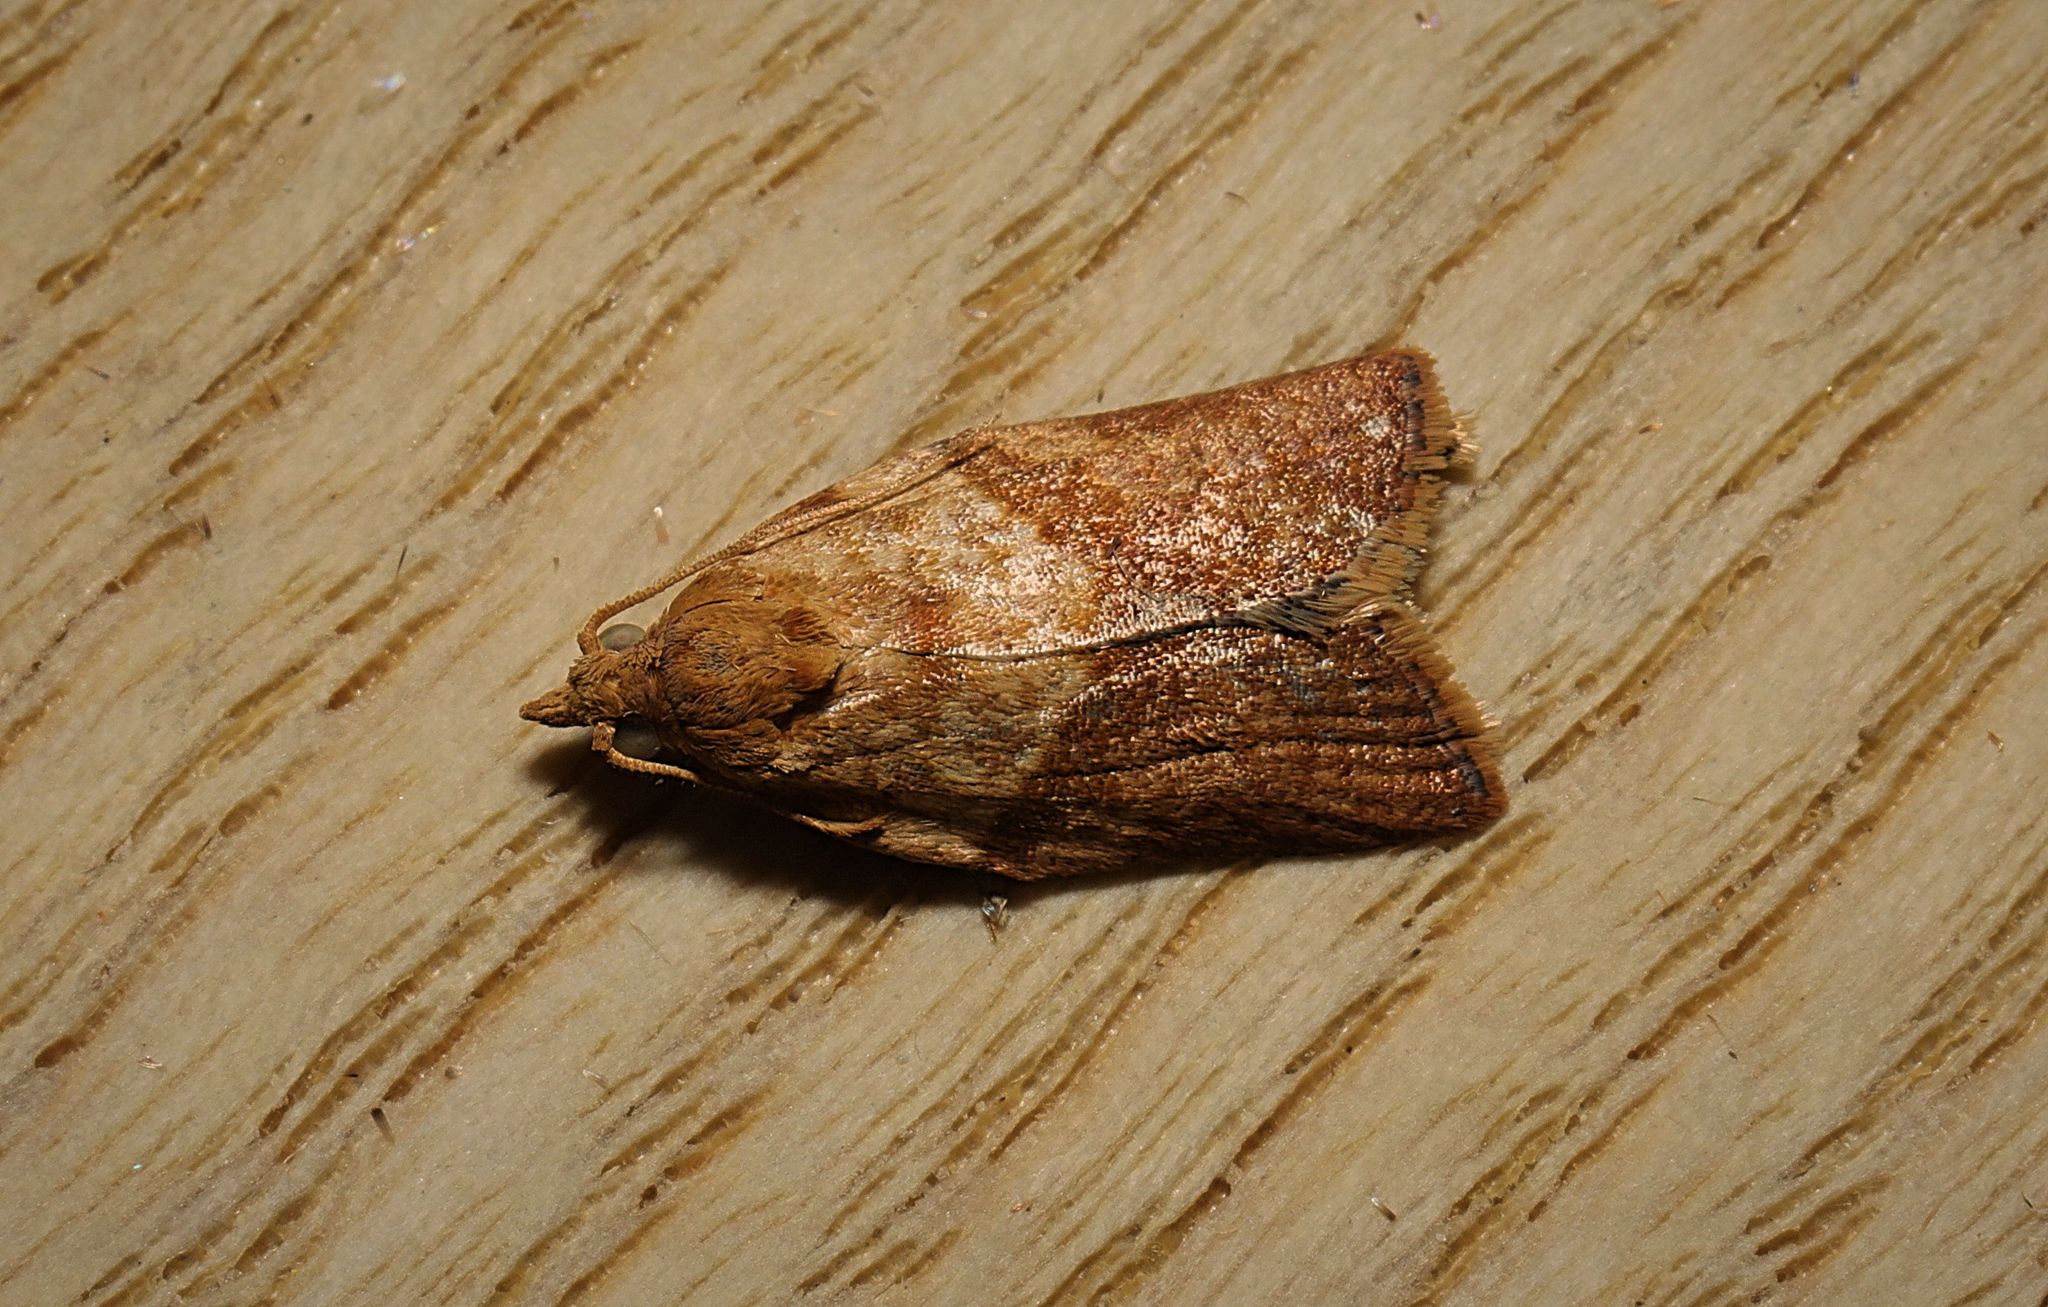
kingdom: Animalia
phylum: Arthropoda
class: Insecta
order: Lepidoptera
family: Tortricidae
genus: Epiphyas
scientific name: Epiphyas postvittana
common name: Light brown apple moth
